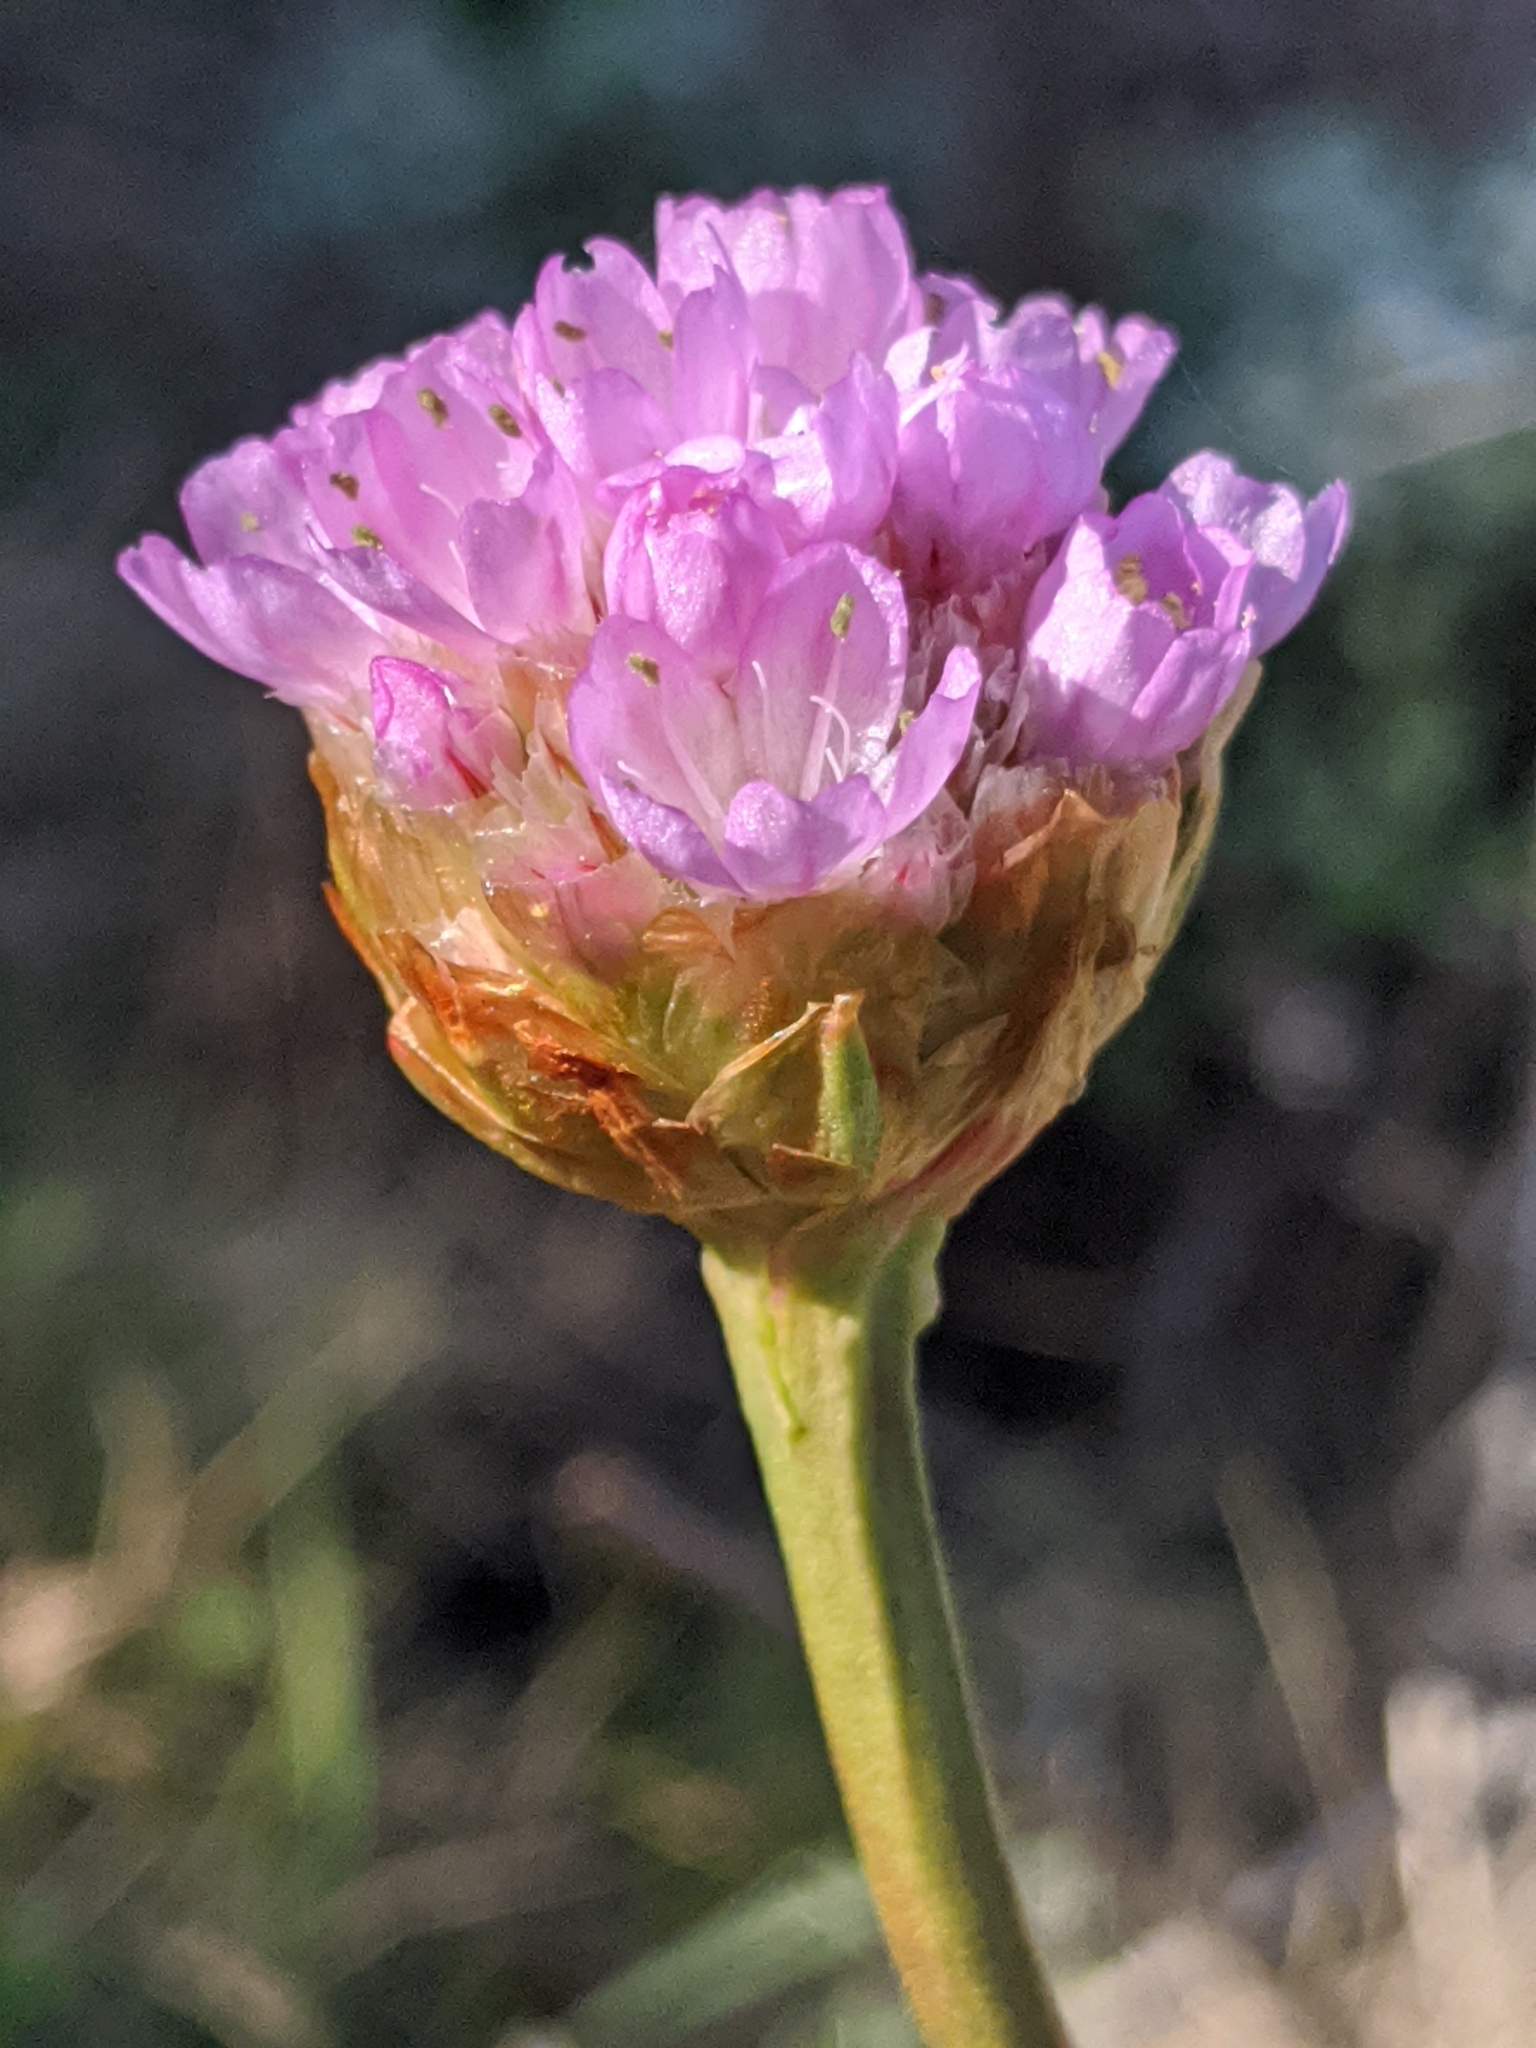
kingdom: Plantae
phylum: Tracheophyta
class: Magnoliopsida
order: Caryophyllales
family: Plumbaginaceae
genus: Armeria
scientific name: Armeria maritima
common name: Thrift
